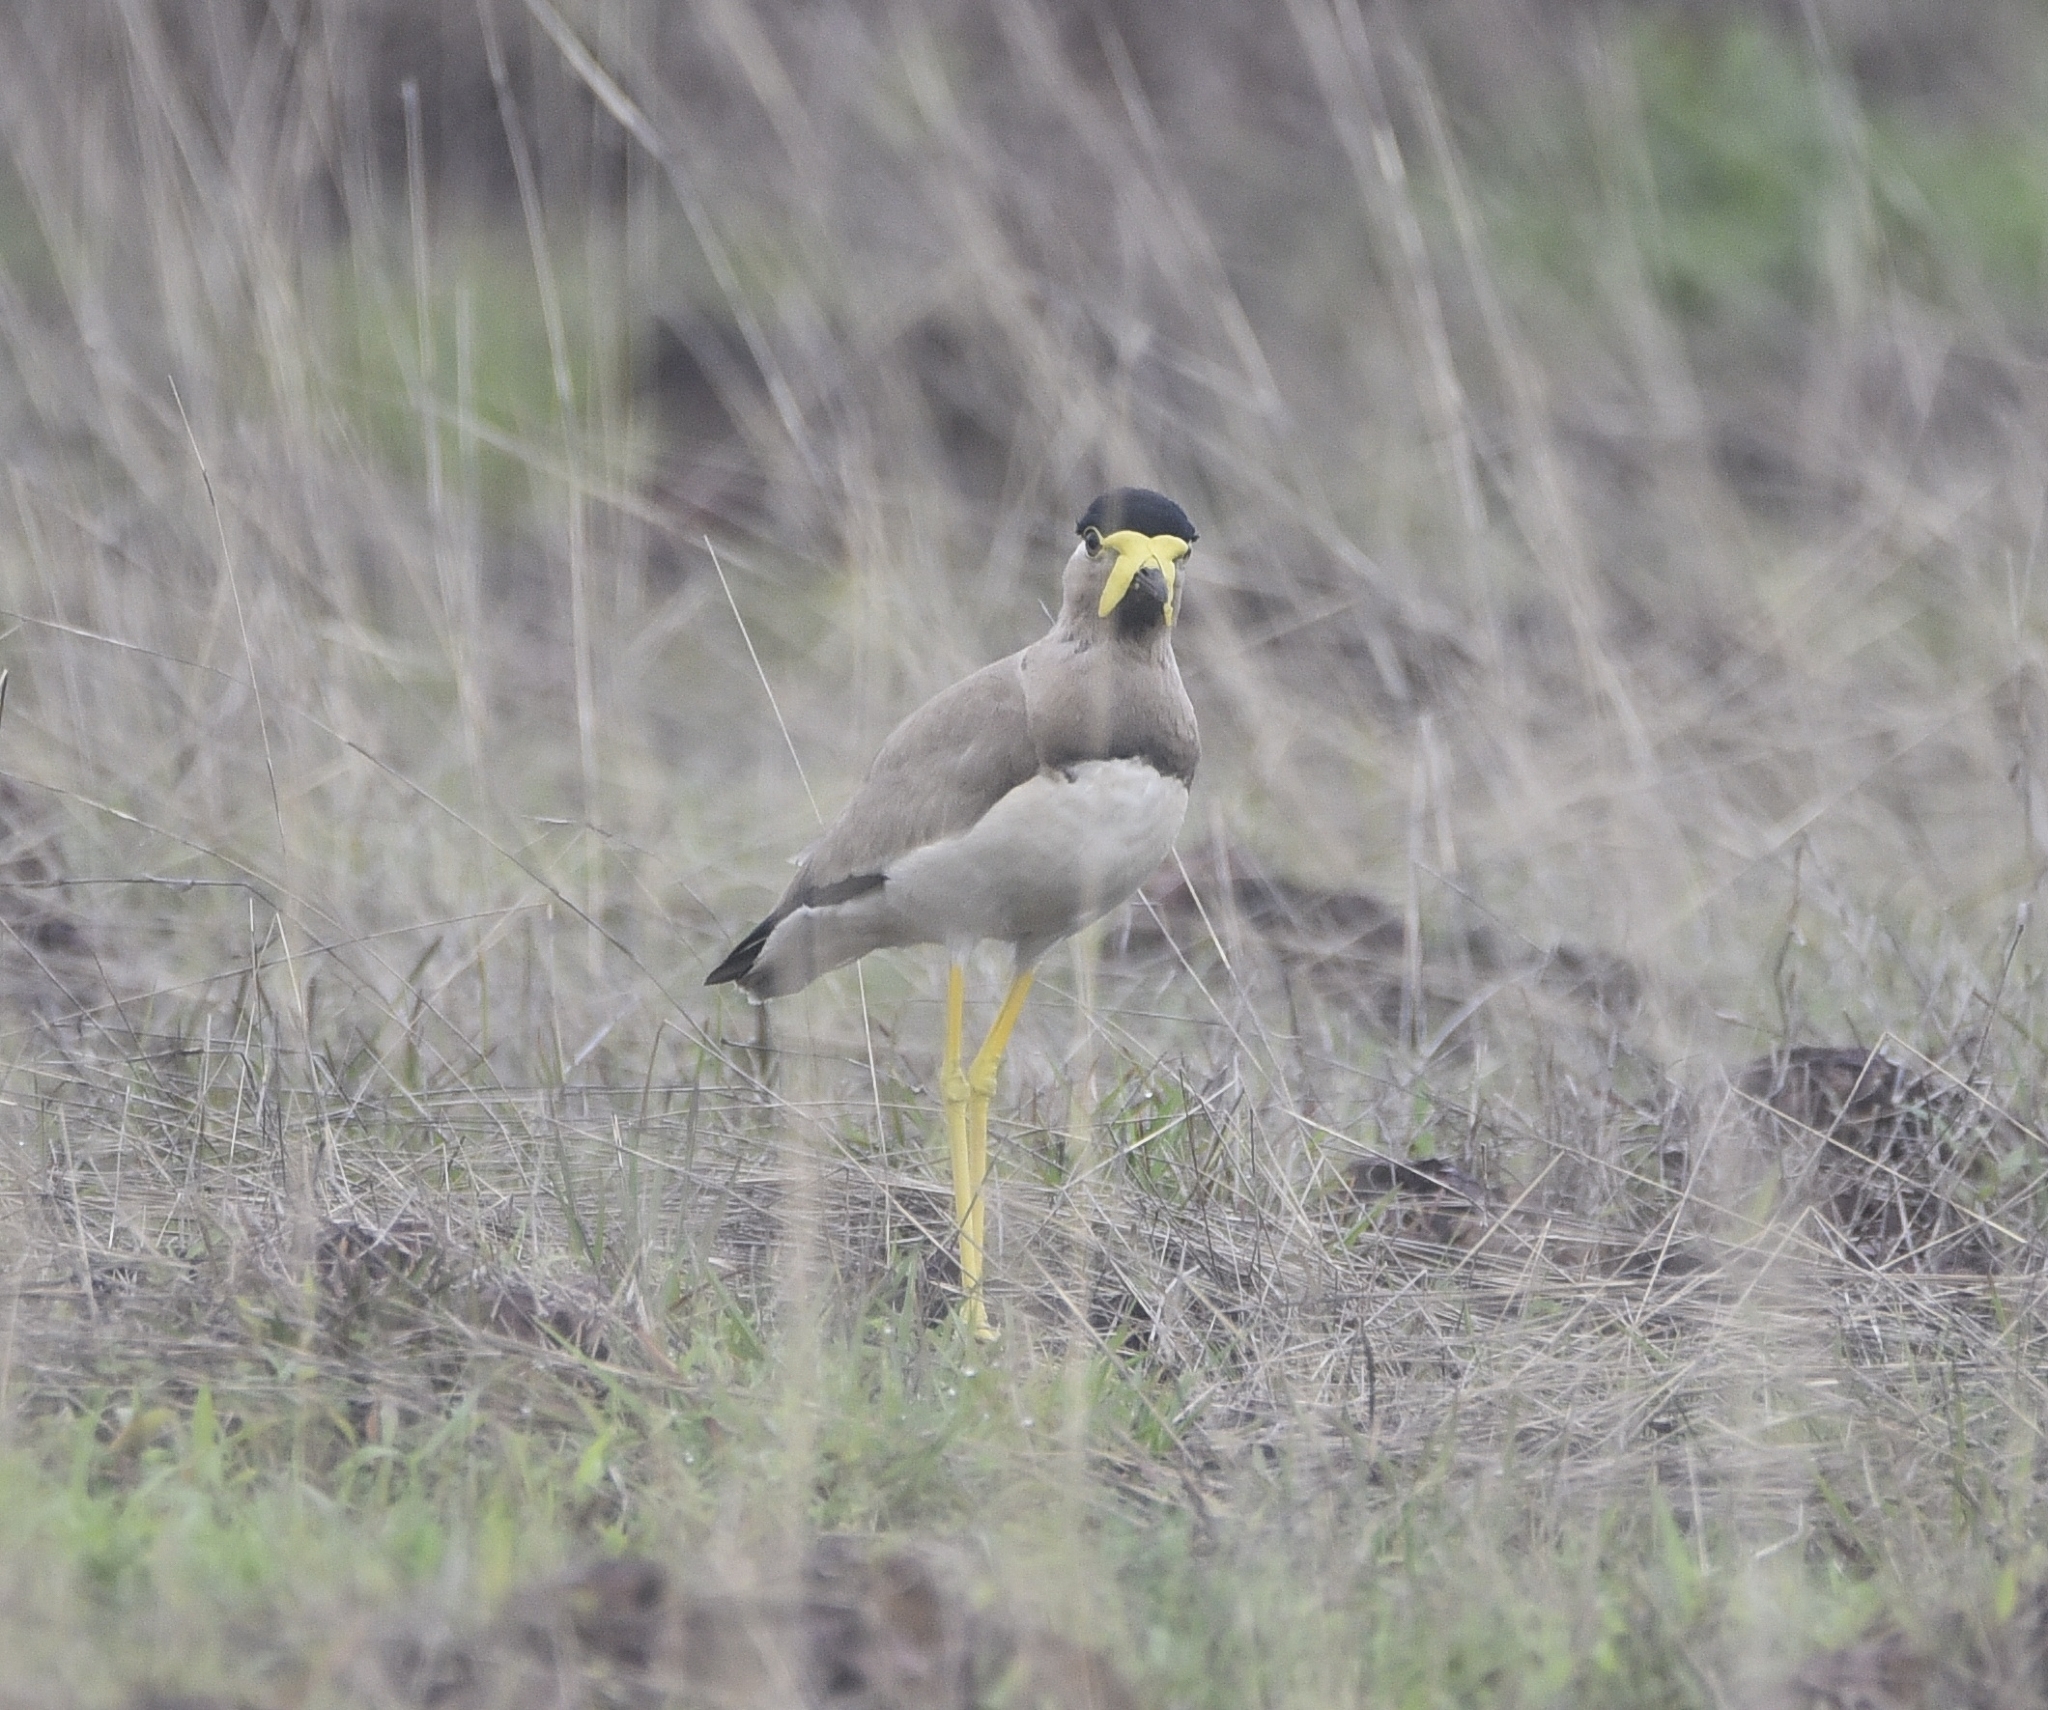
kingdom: Animalia
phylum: Chordata
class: Aves
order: Charadriiformes
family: Charadriidae
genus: Vanellus
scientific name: Vanellus malabaricus
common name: Yellow-wattled lapwing
